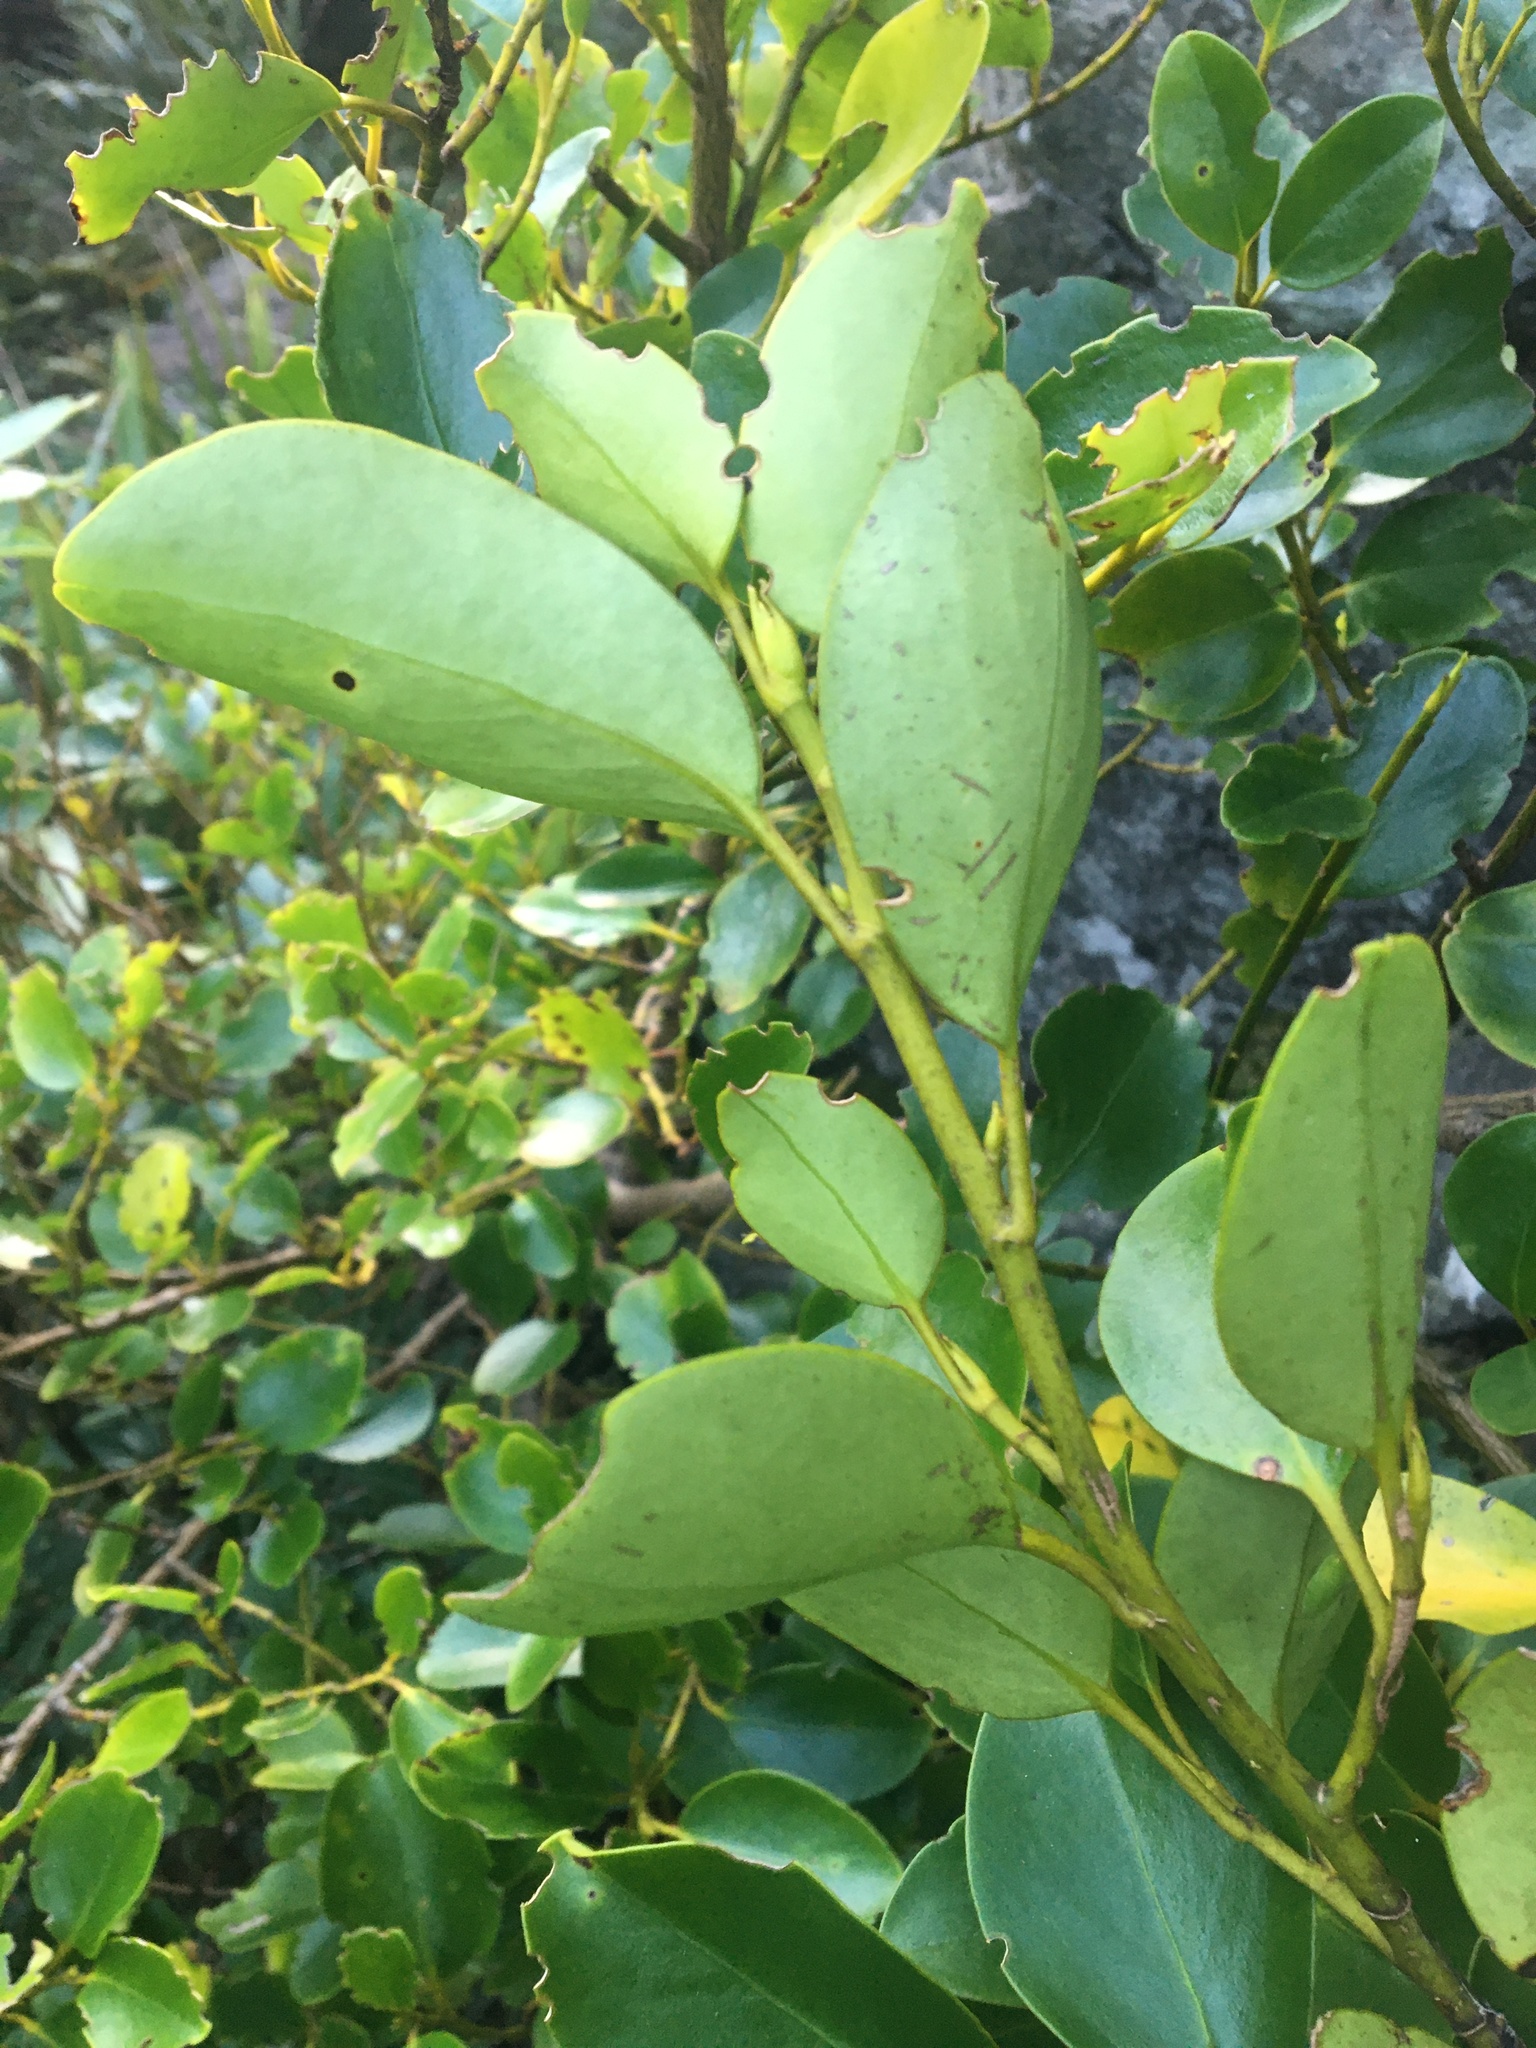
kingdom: Plantae
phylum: Tracheophyta
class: Magnoliopsida
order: Apiales
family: Griseliniaceae
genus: Griselinia
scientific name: Griselinia littoralis
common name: New zealand broadleaf
